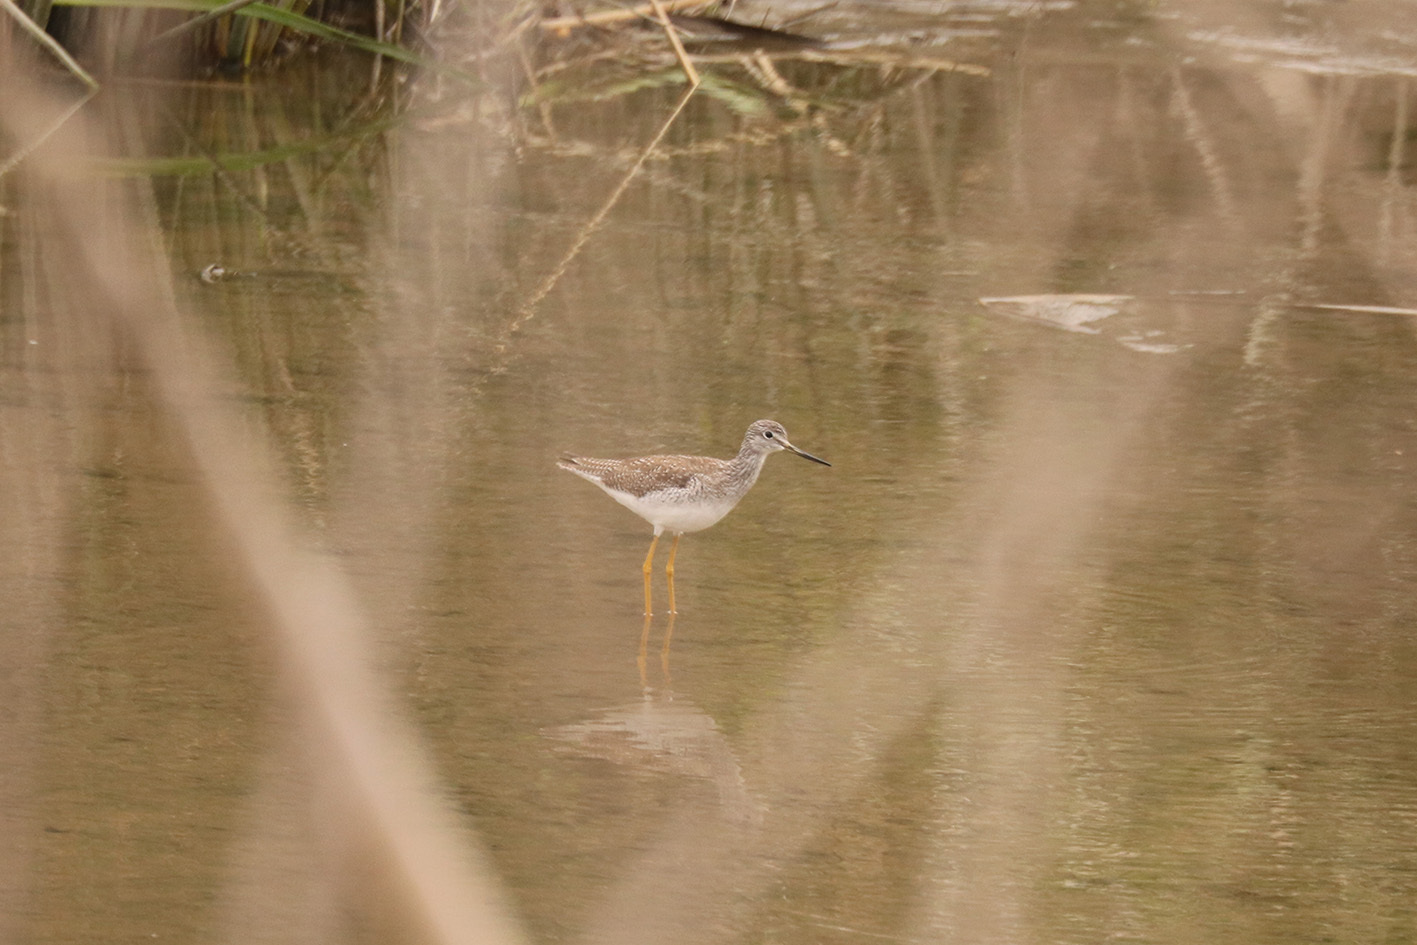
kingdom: Animalia
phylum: Chordata
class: Aves
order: Charadriiformes
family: Scolopacidae
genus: Tringa
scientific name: Tringa melanoleuca
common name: Greater yellowlegs
